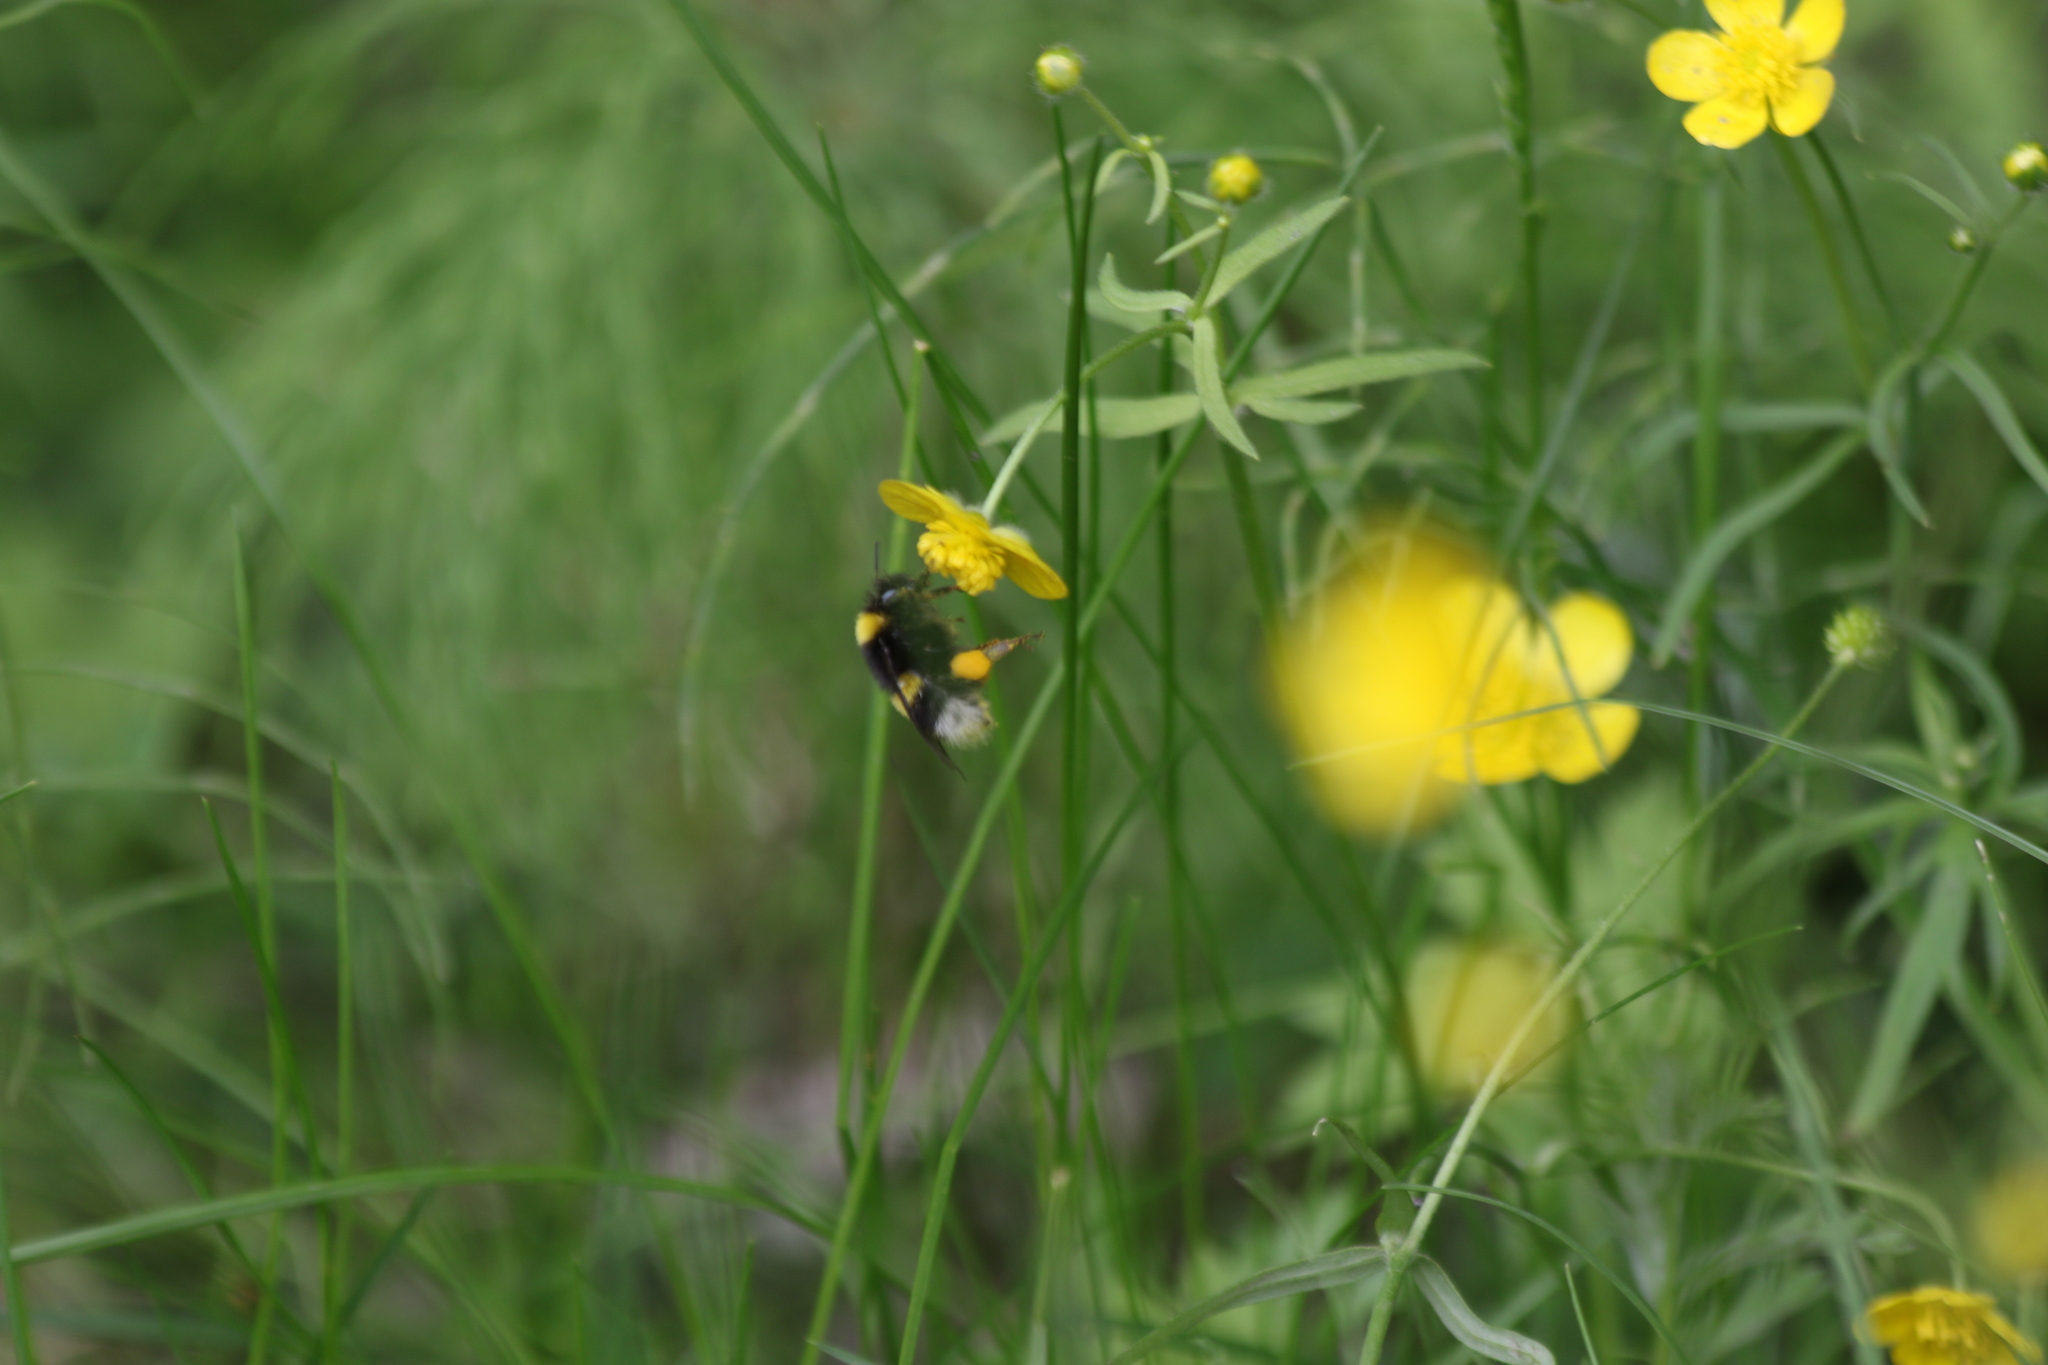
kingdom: Animalia
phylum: Arthropoda
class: Insecta
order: Hymenoptera
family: Apidae
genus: Bombus
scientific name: Bombus
